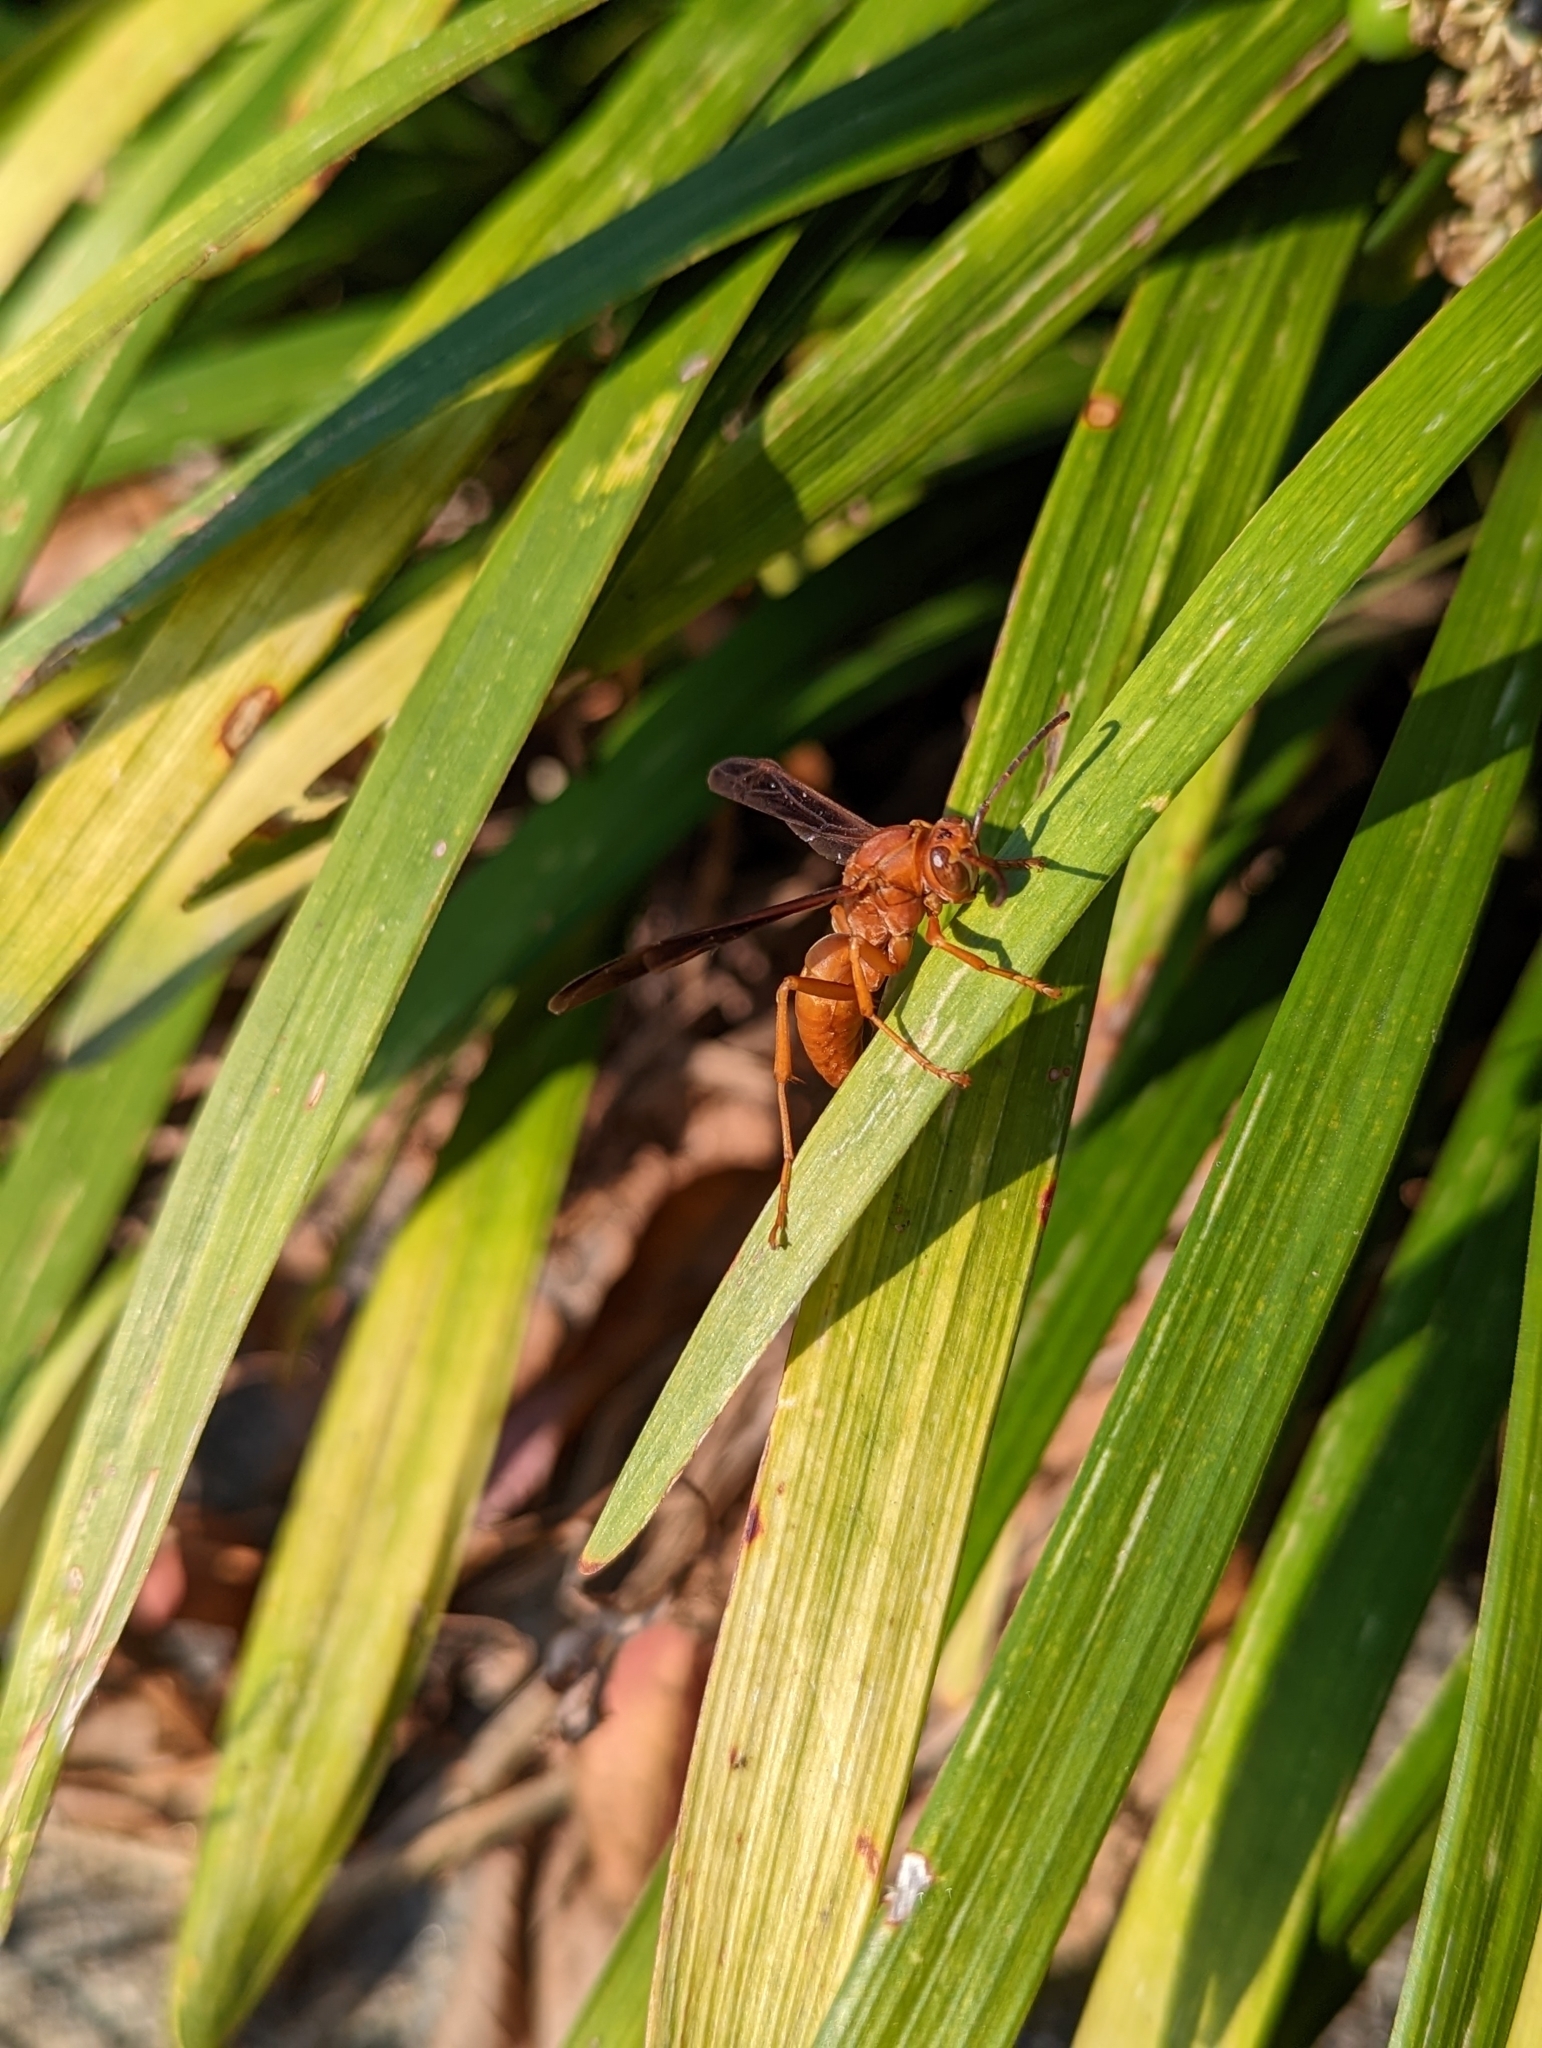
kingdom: Animalia
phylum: Arthropoda
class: Insecta
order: Hymenoptera
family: Vespidae
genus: Fuscopolistes
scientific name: Fuscopolistes
